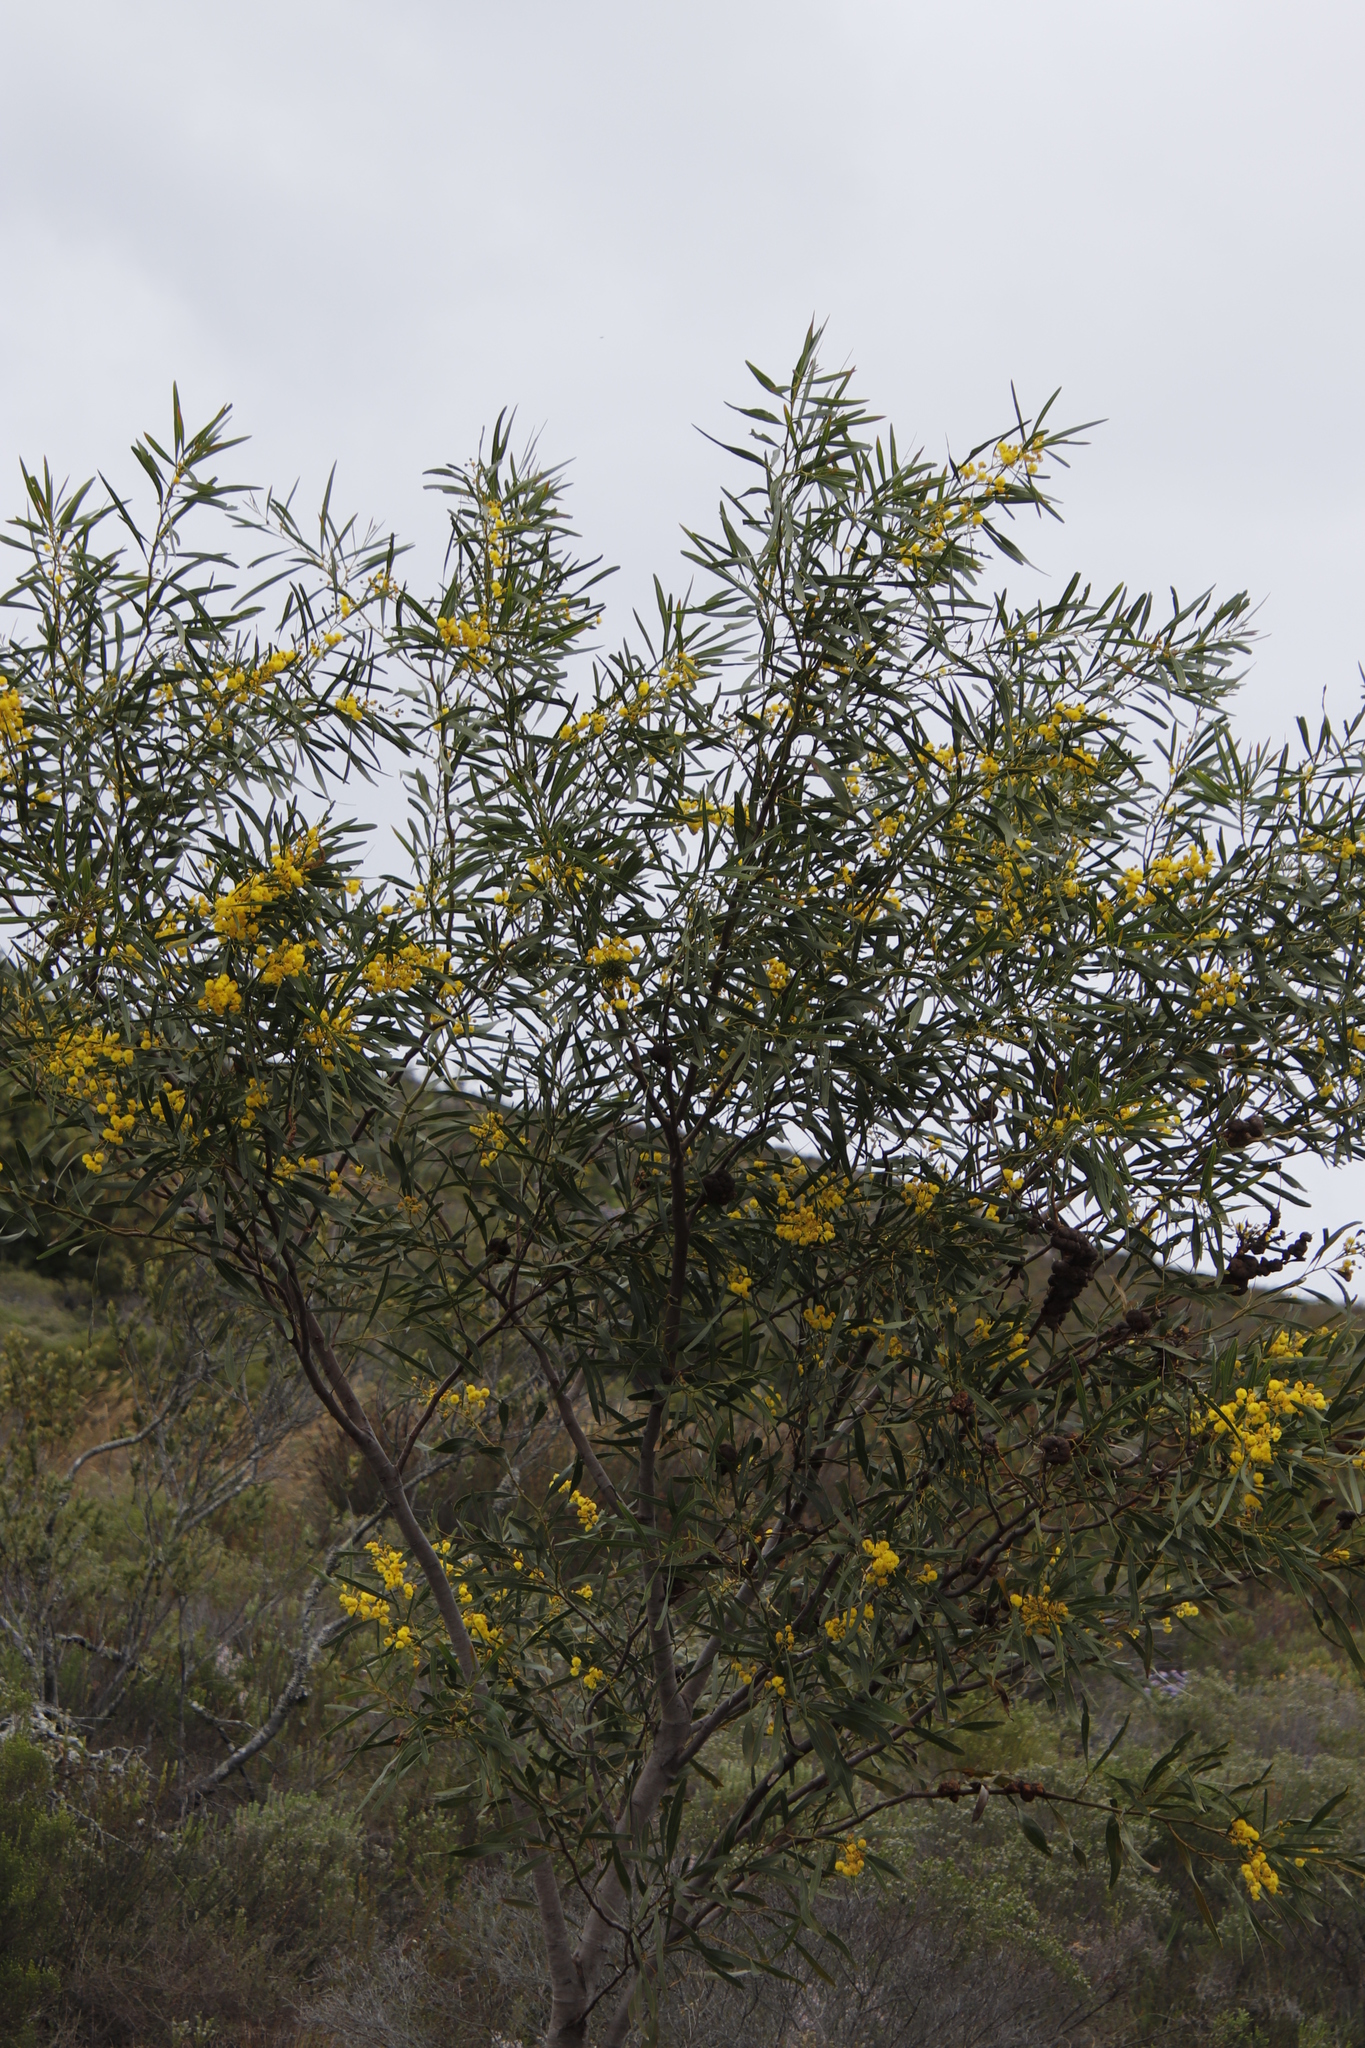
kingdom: Plantae
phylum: Tracheophyta
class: Magnoliopsida
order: Fabales
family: Fabaceae
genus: Acacia
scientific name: Acacia saligna
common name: Orange wattle
